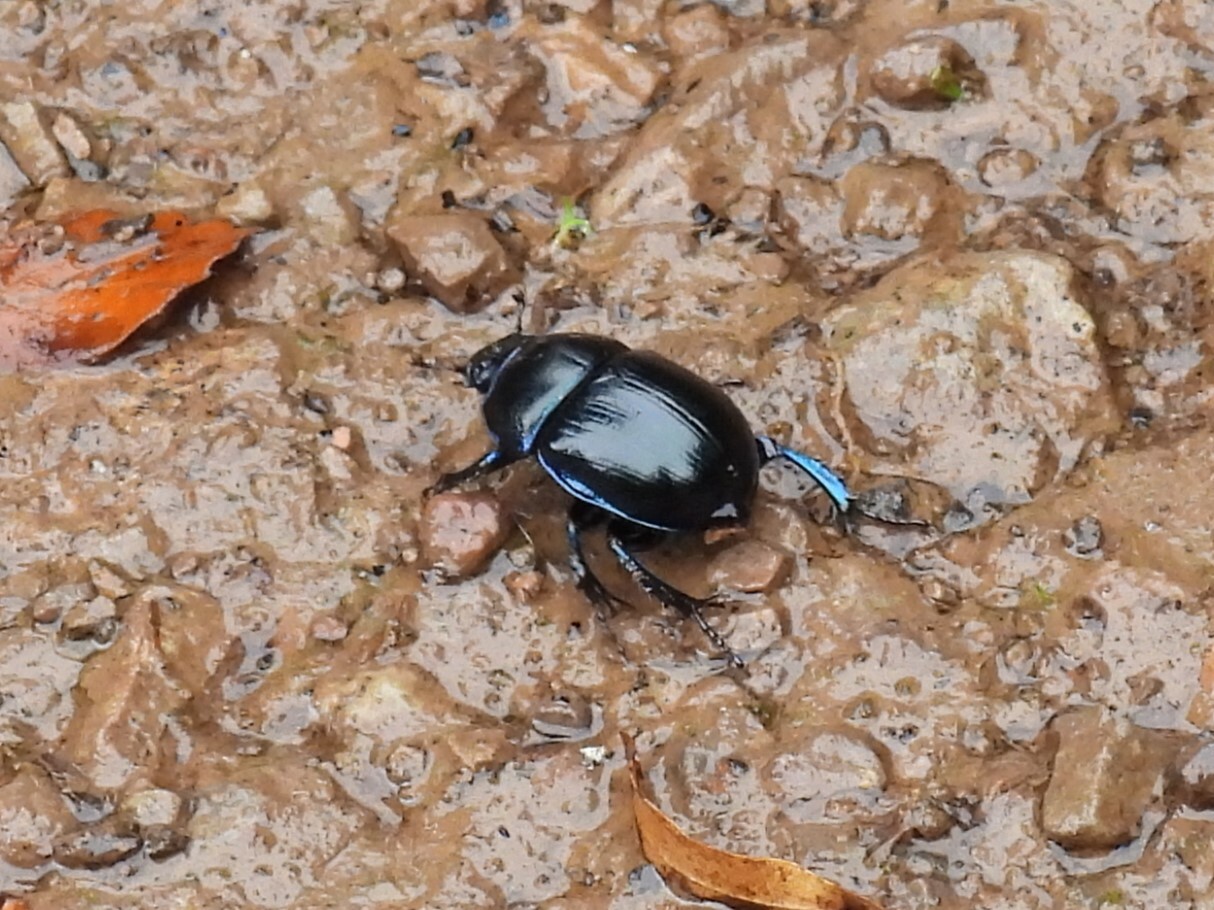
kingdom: Animalia
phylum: Arthropoda
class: Insecta
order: Coleoptera
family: Geotrupidae
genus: Anoplotrupes
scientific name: Anoplotrupes stercorosus
